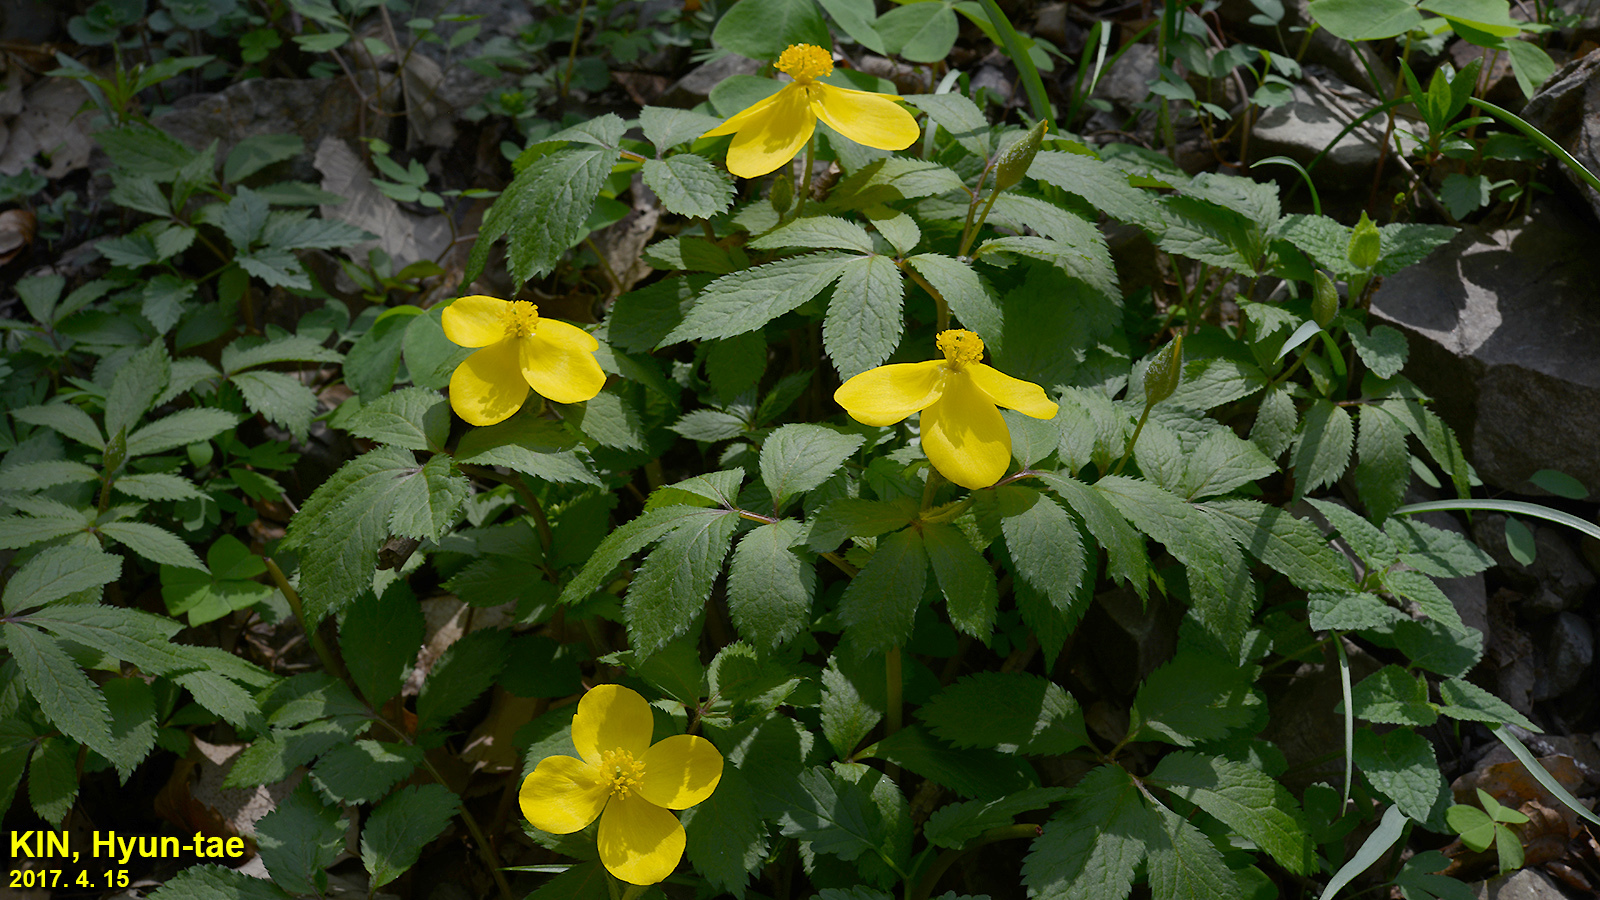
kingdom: Plantae
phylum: Tracheophyta
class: Magnoliopsida
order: Ranunculales
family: Papaveraceae
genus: Hylomecon
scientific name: Hylomecon vernalis
